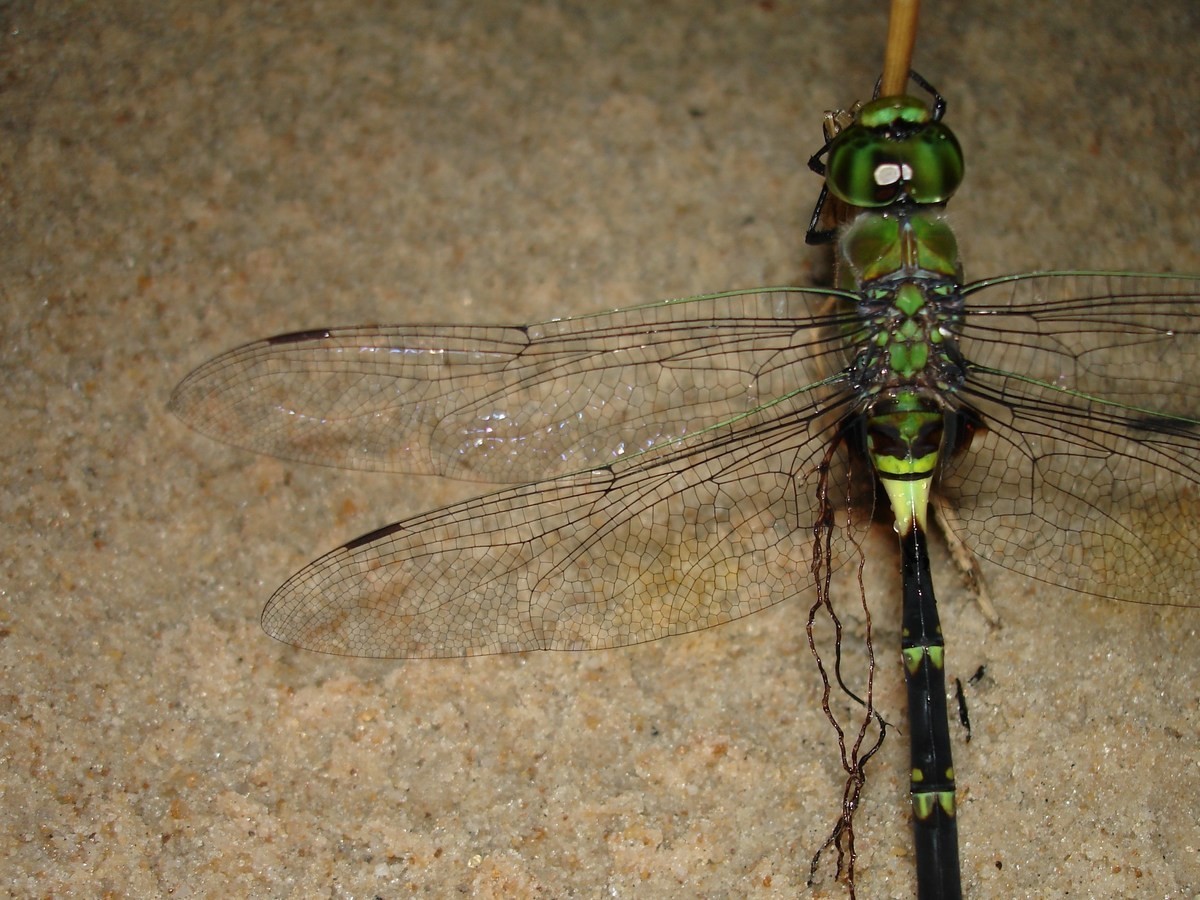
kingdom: Animalia
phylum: Arthropoda
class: Insecta
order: Odonata
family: Aeshnidae
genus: Anax
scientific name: Anax tristis
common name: Black emperor
